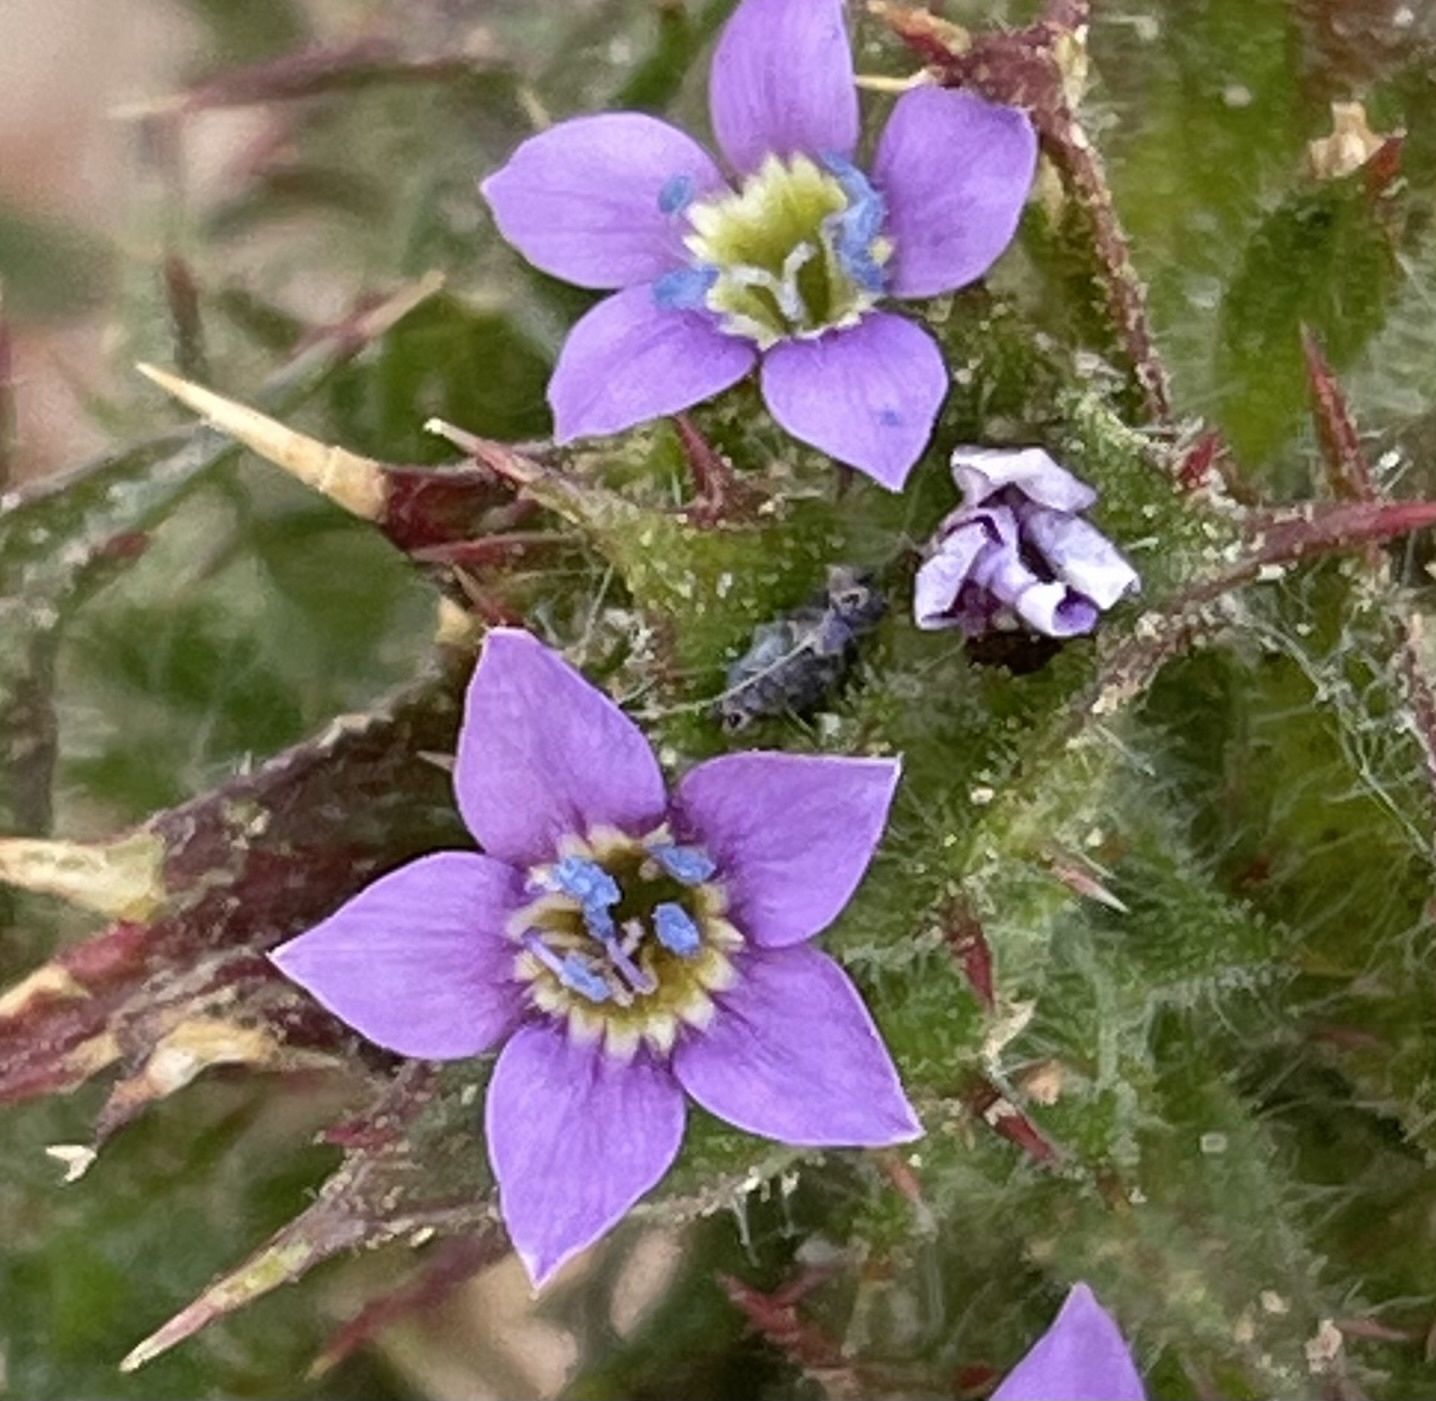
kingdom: Plantae
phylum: Tracheophyta
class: Magnoliopsida
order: Ericales
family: Polemoniaceae
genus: Navarretia
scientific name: Navarretia atractyloides
